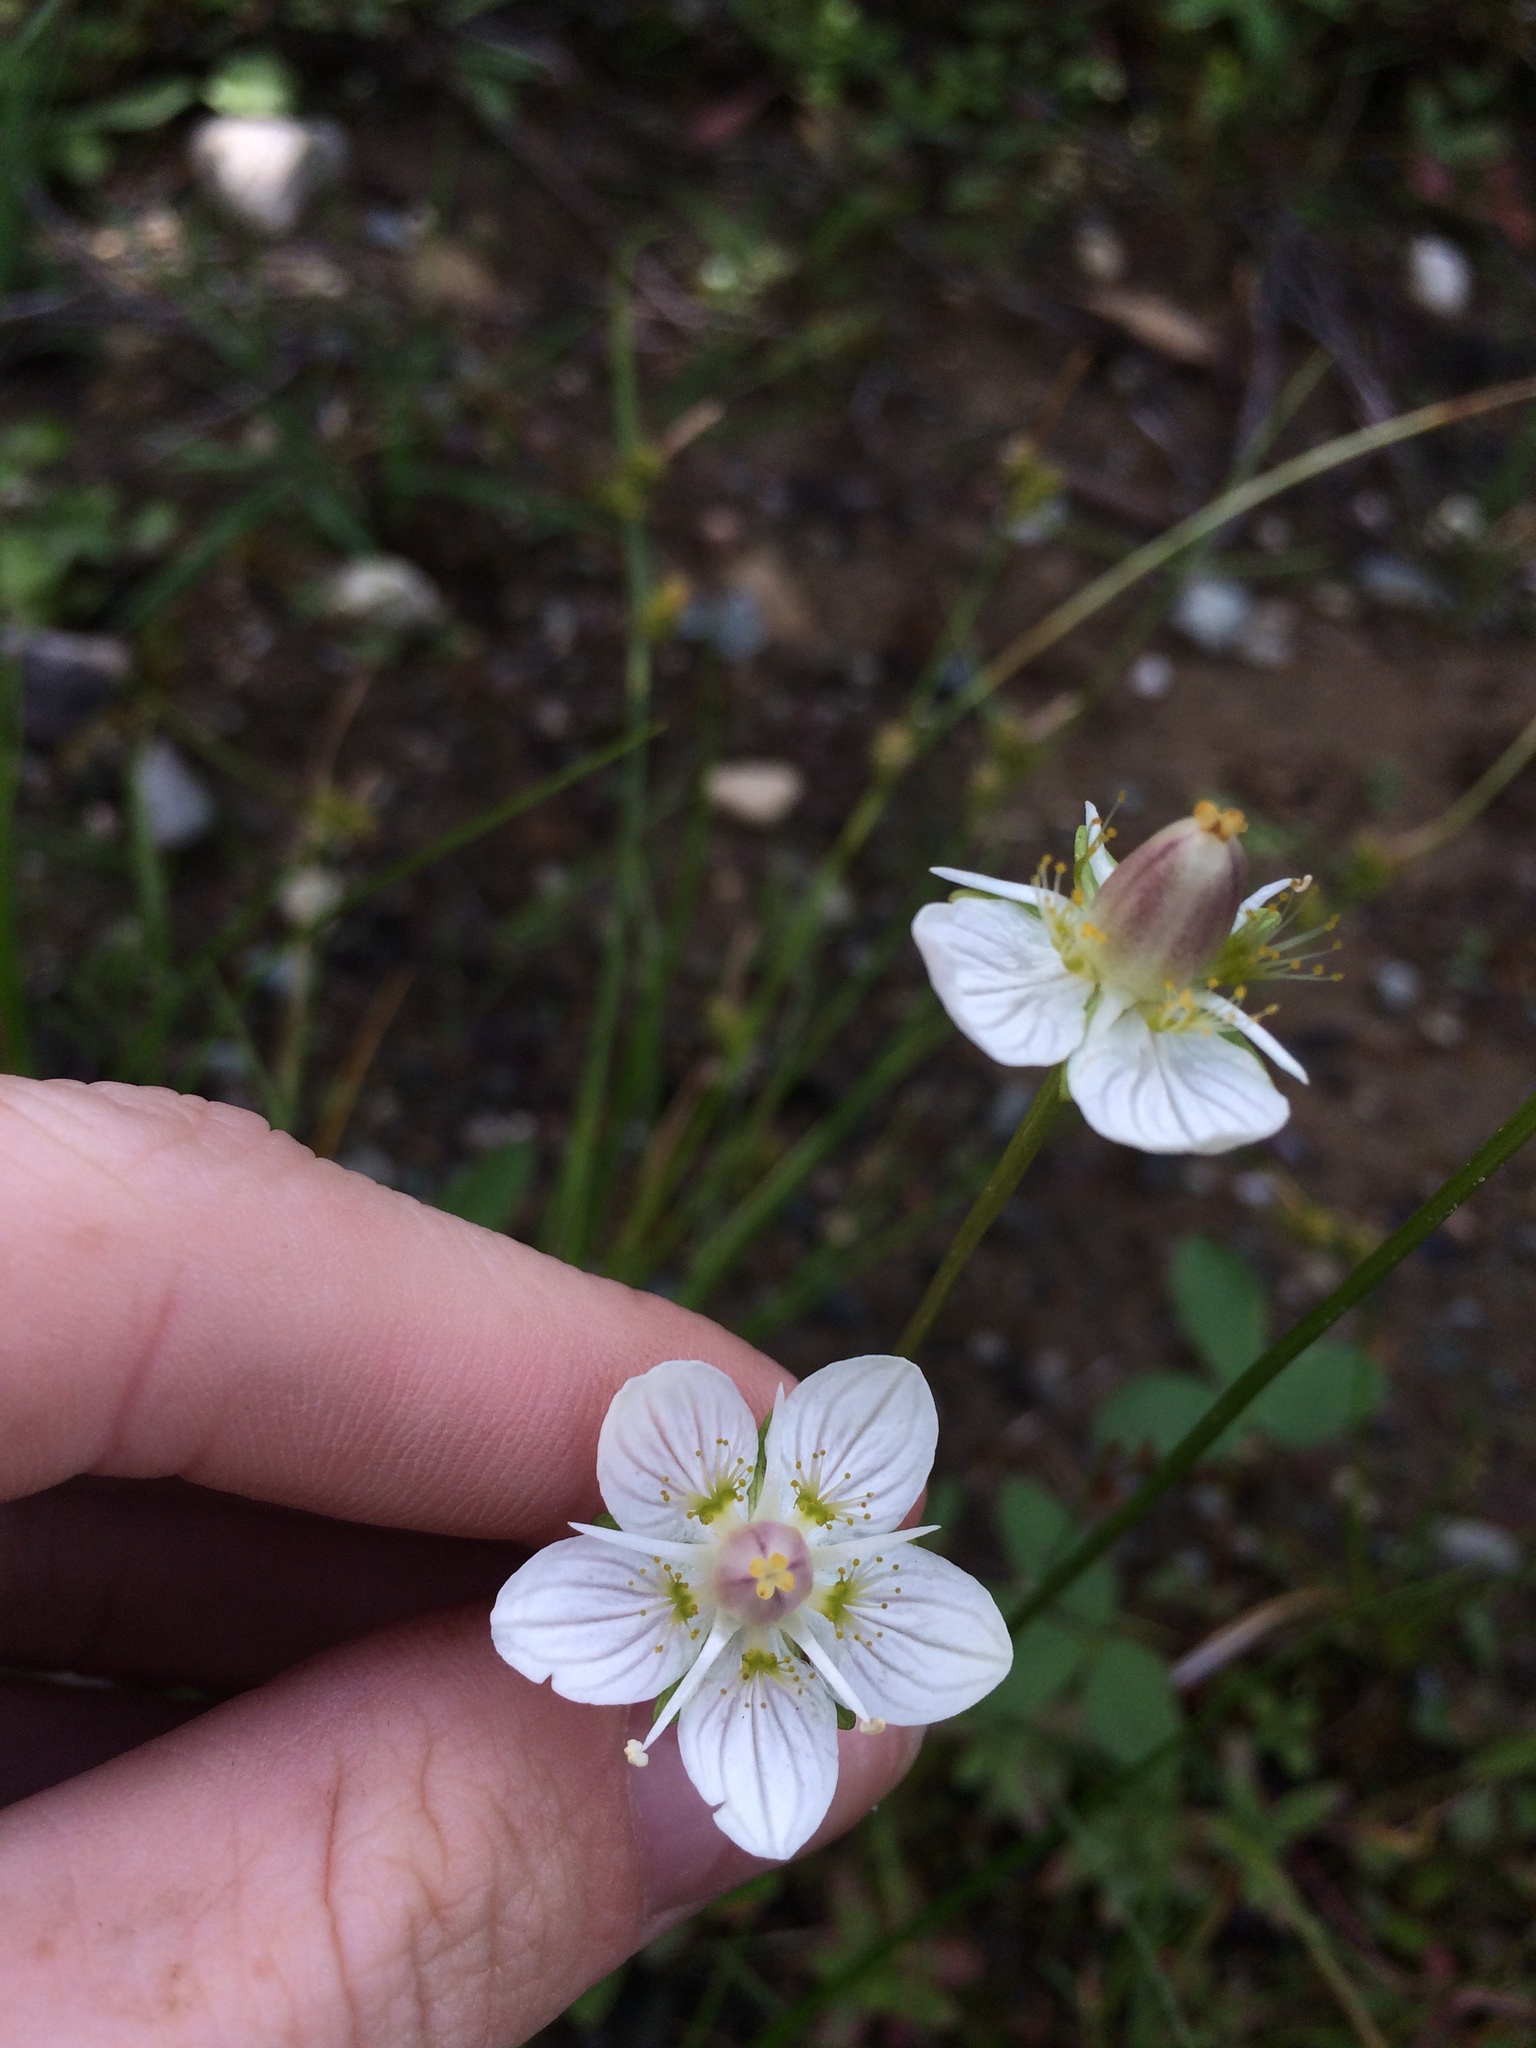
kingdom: Plantae
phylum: Tracheophyta
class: Magnoliopsida
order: Celastrales
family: Parnassiaceae
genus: Parnassia
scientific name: Parnassia palustris
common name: Grass-of-parnassus
